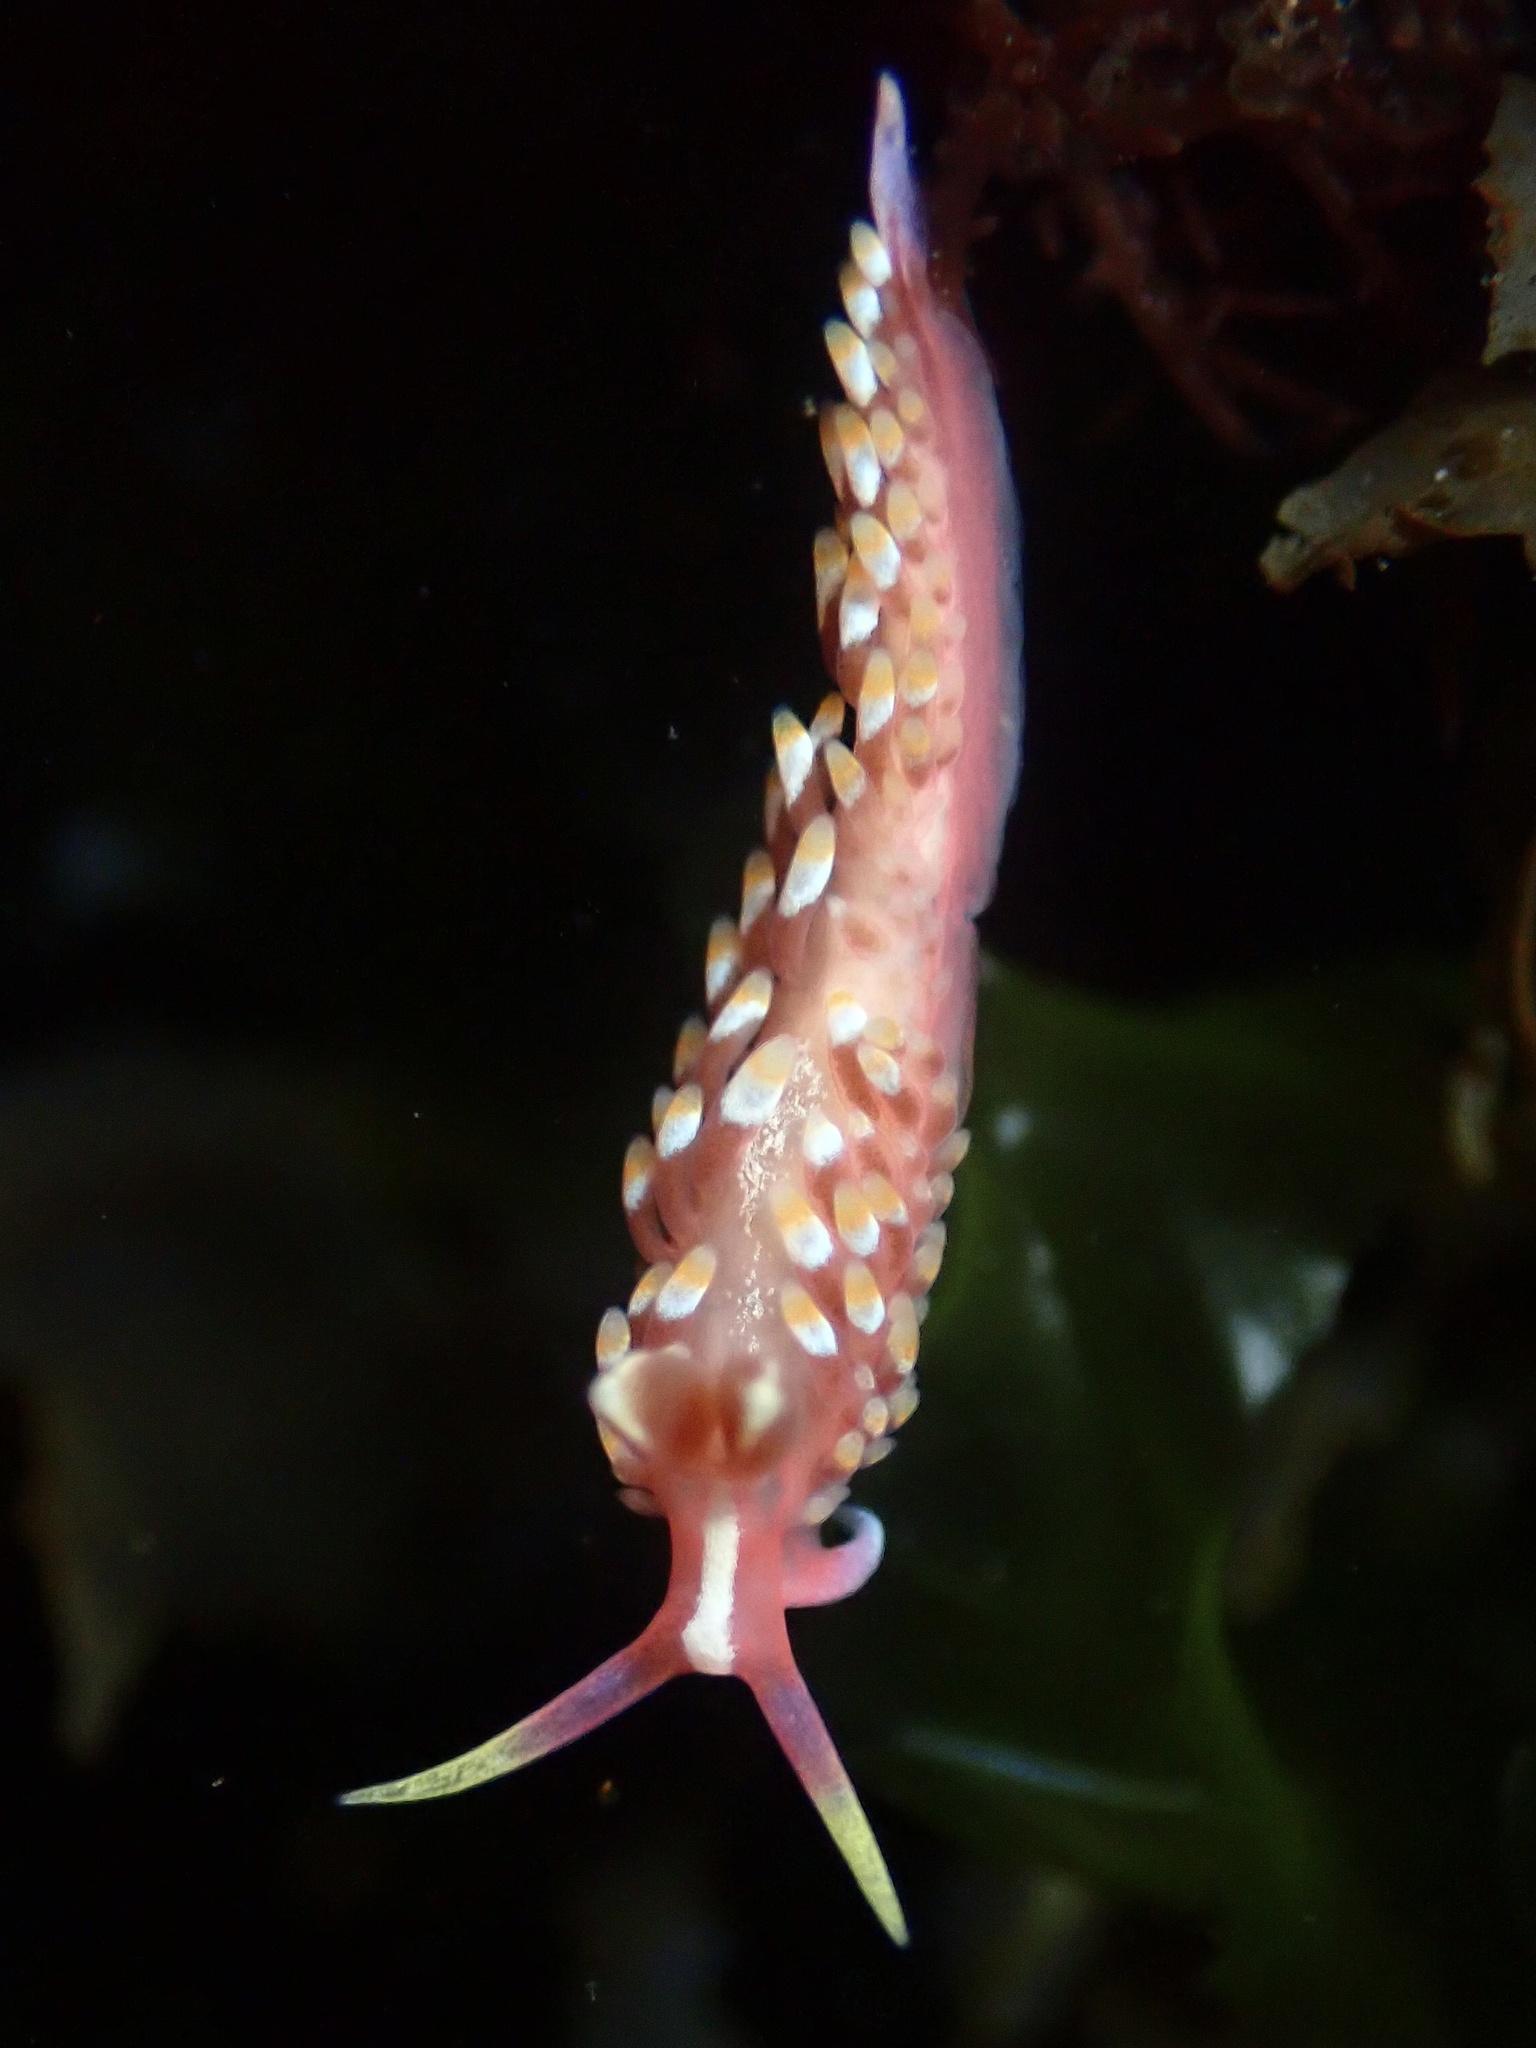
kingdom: Animalia
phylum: Mollusca
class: Gastropoda
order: Nudibranchia
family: Babakinidae
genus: Babakina
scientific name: Babakina festiva
